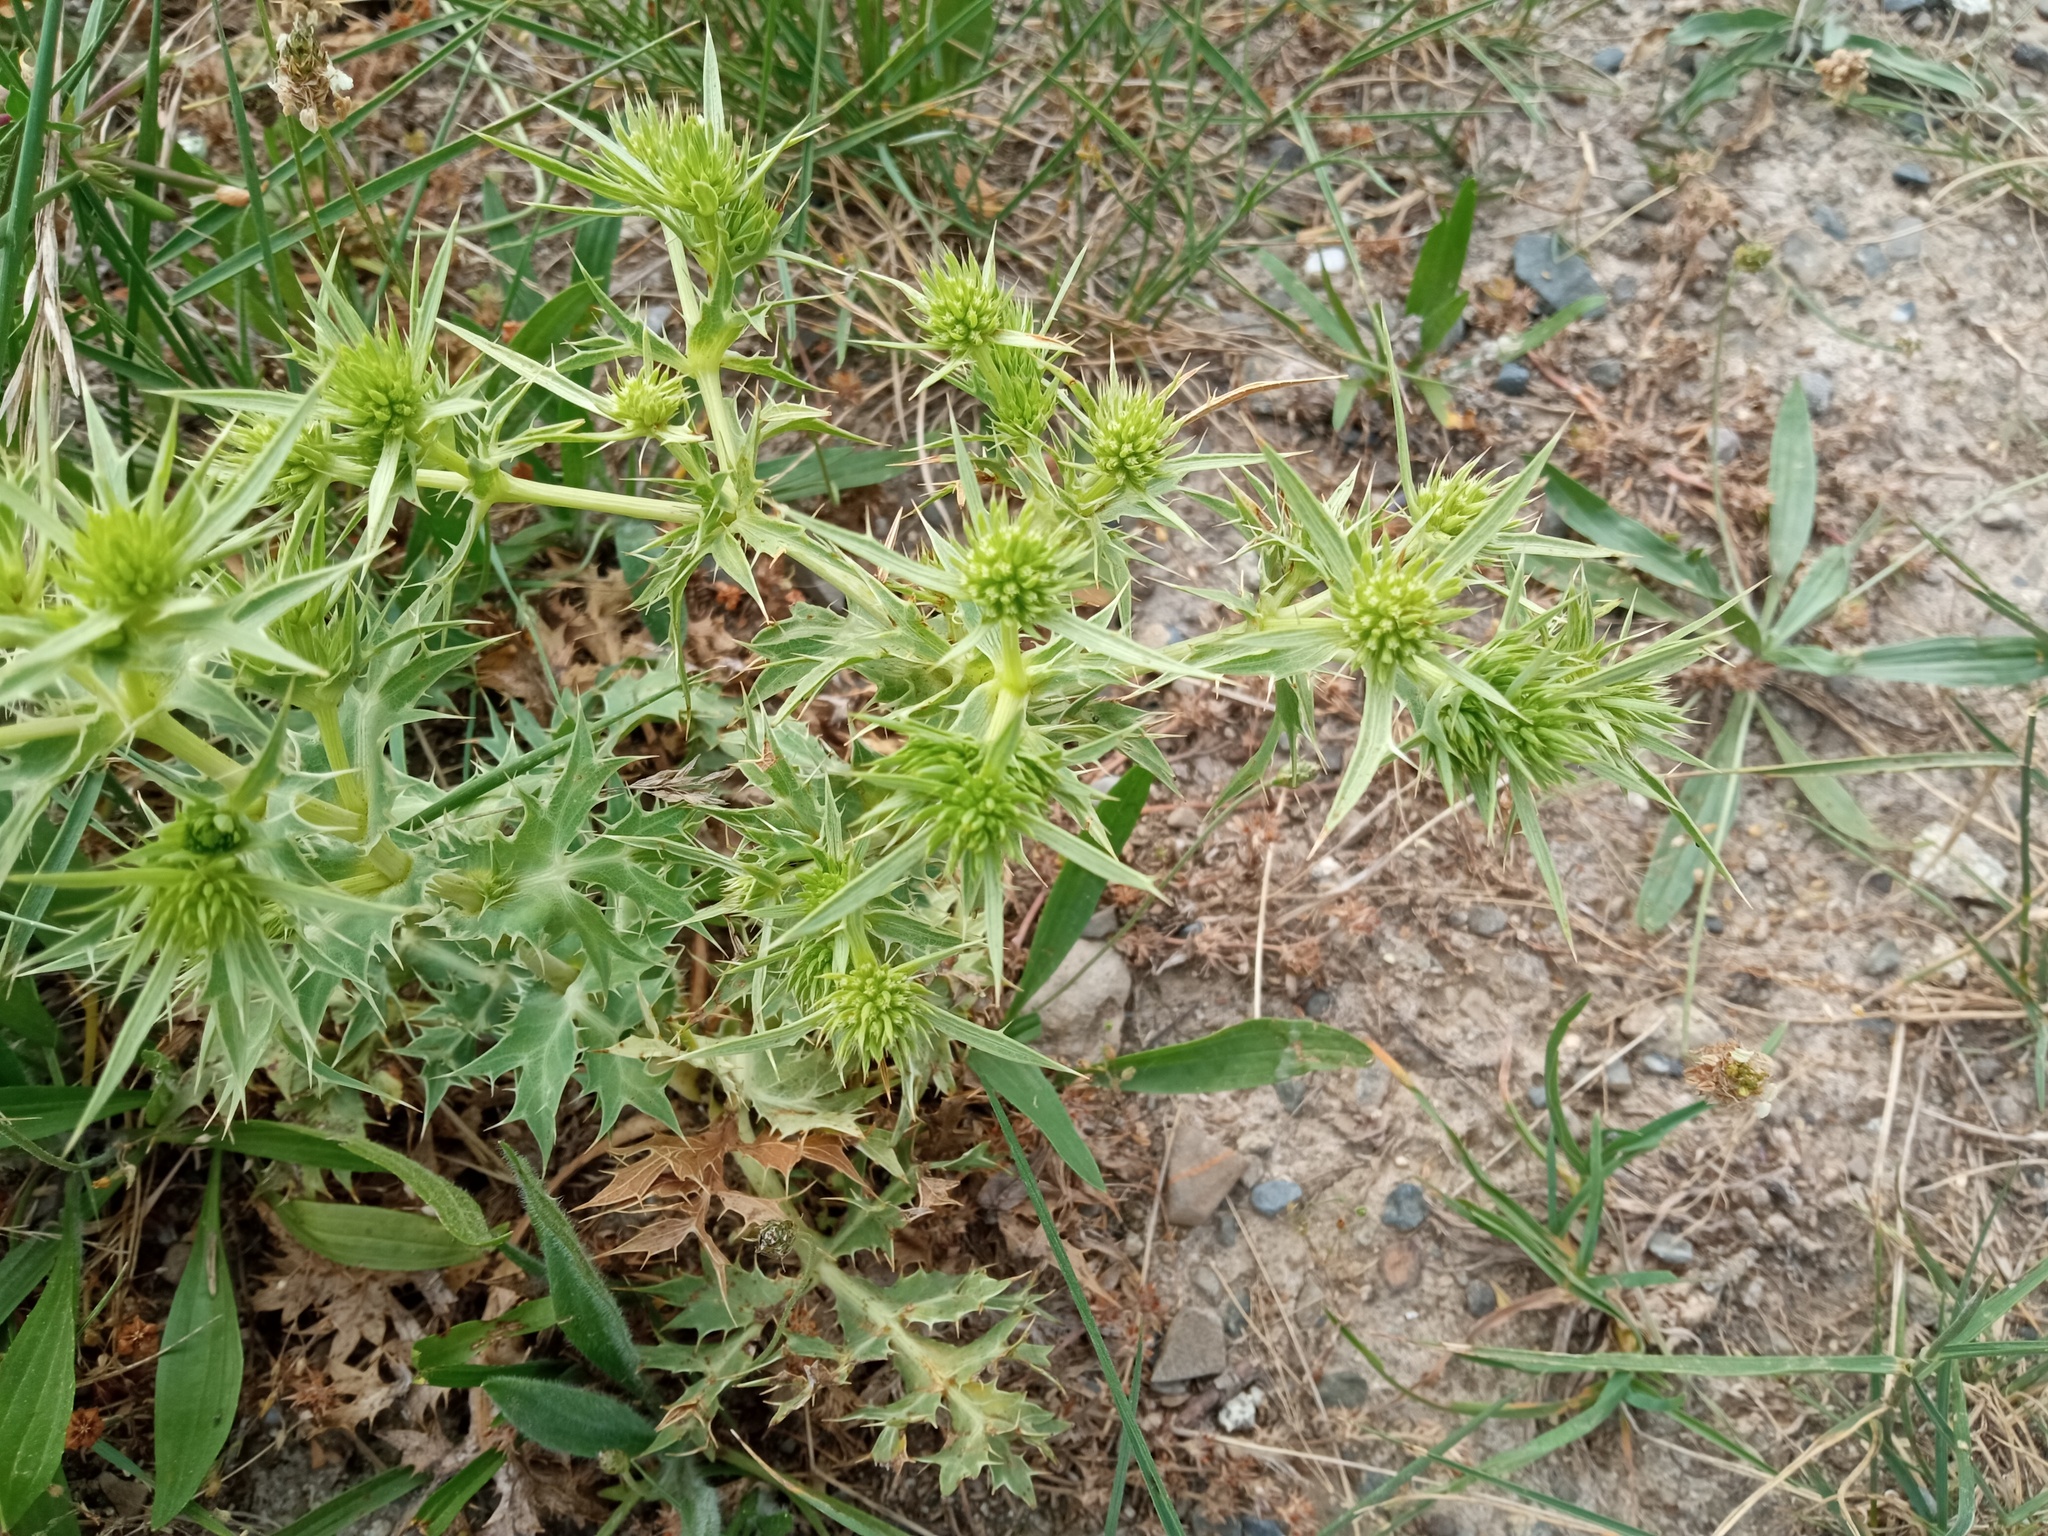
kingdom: Plantae
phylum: Tracheophyta
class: Magnoliopsida
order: Apiales
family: Apiaceae
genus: Eryngium
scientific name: Eryngium campestre
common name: Field eryngo
